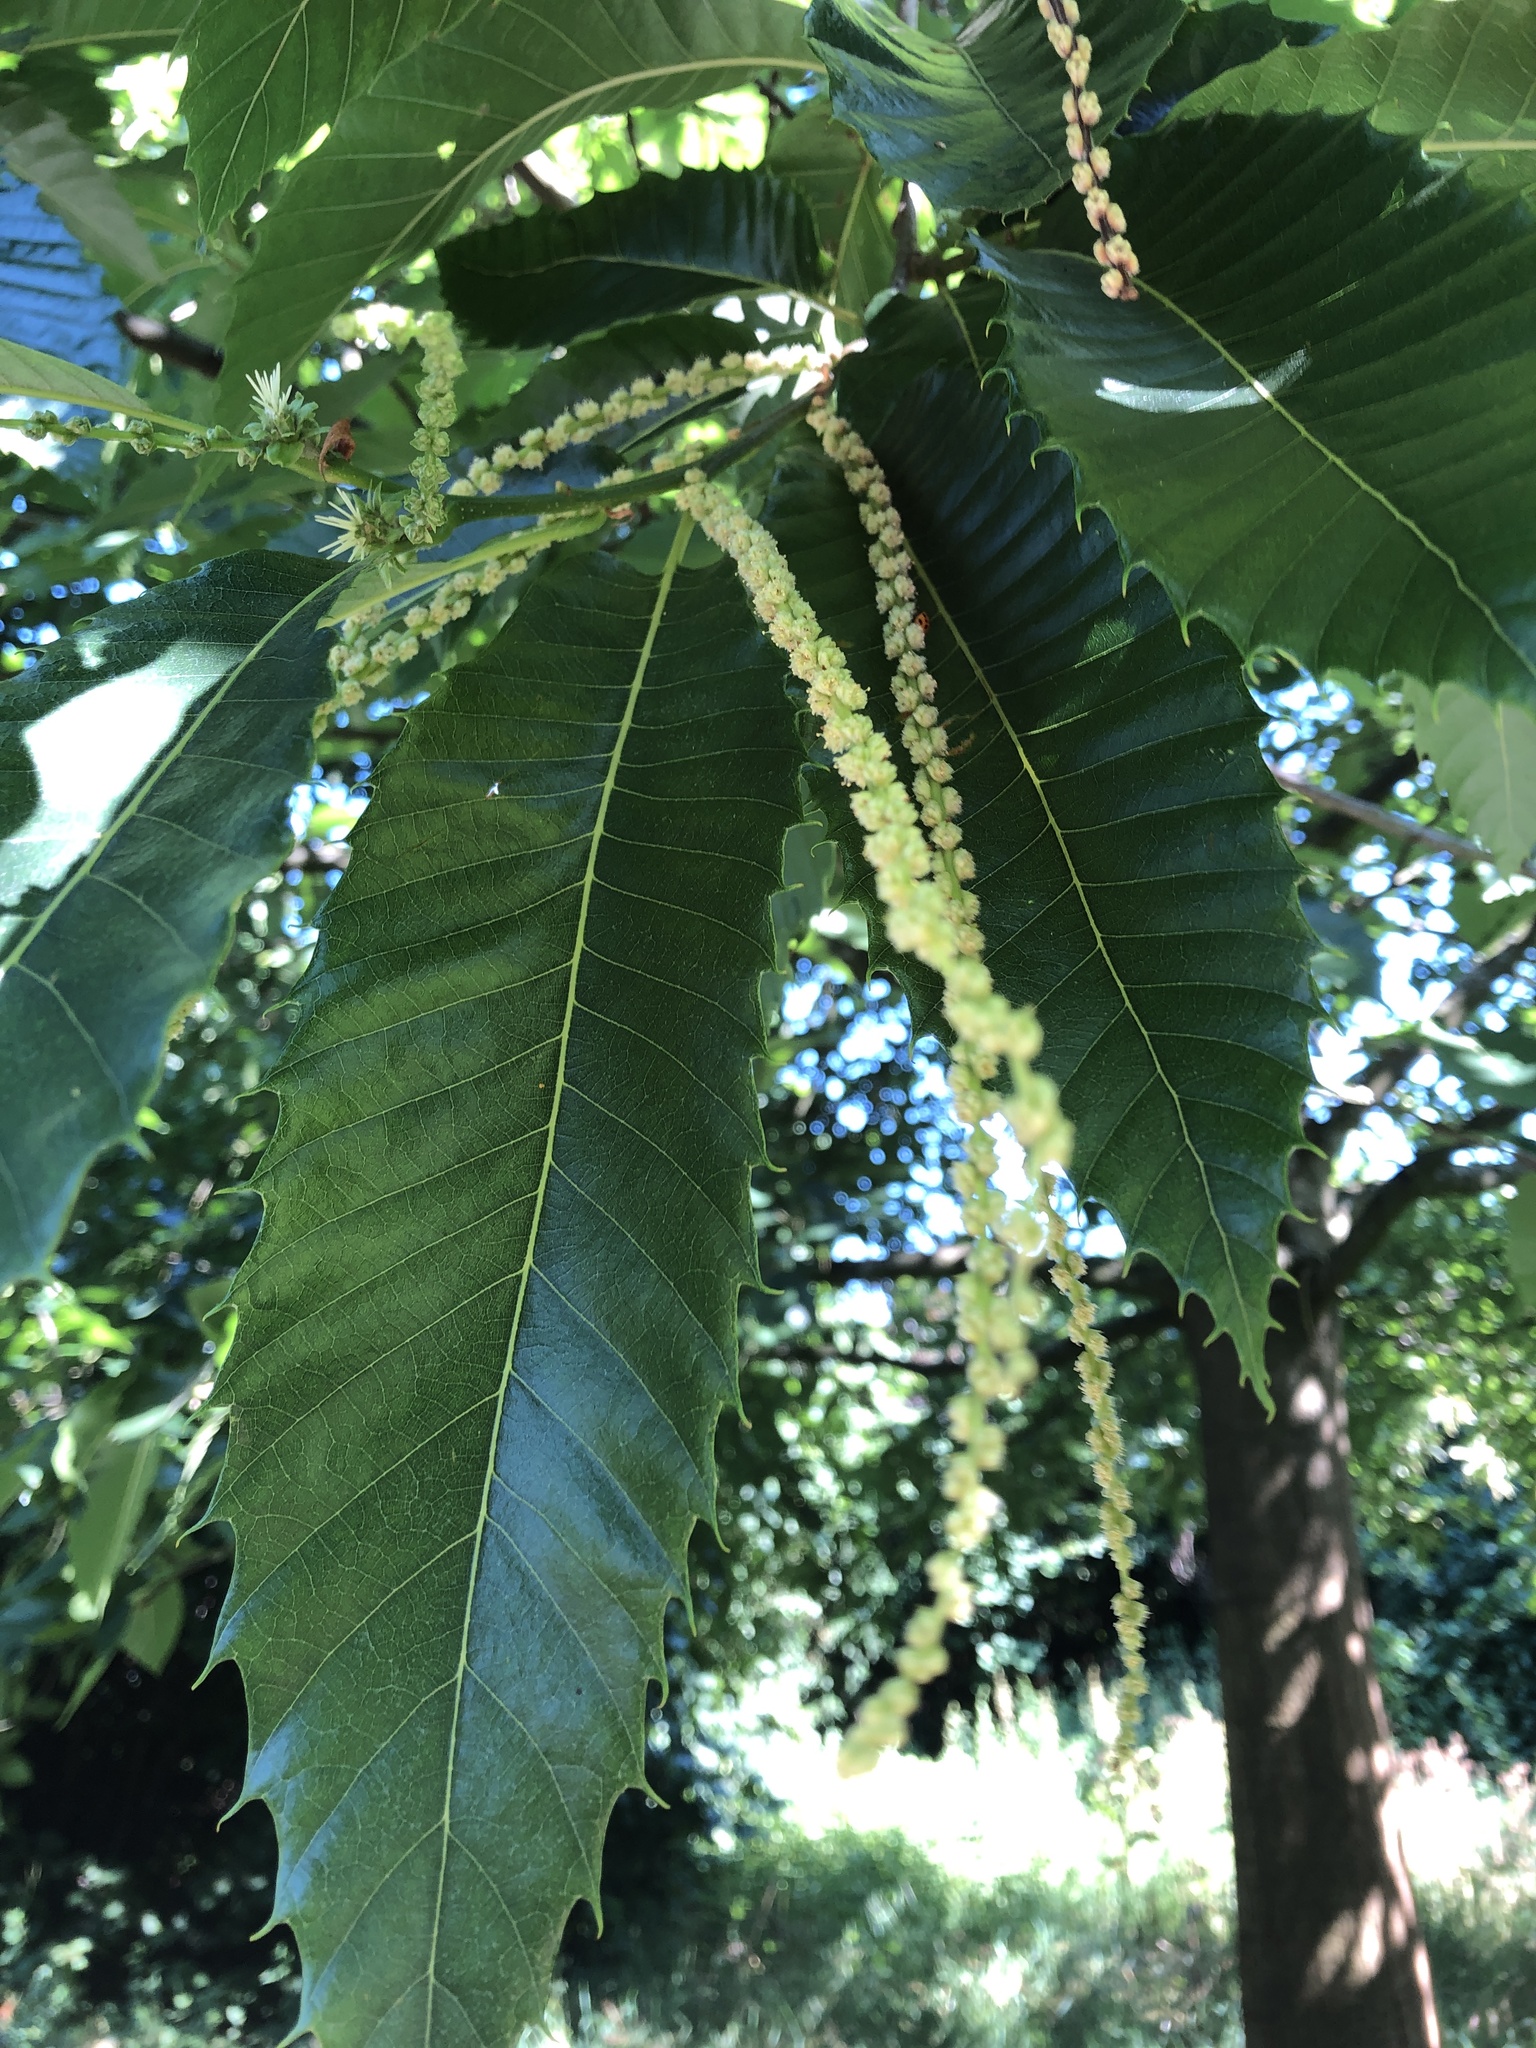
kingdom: Plantae
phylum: Tracheophyta
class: Magnoliopsida
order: Fagales
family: Fagaceae
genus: Castanea
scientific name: Castanea sativa
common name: Sweet chestnut
